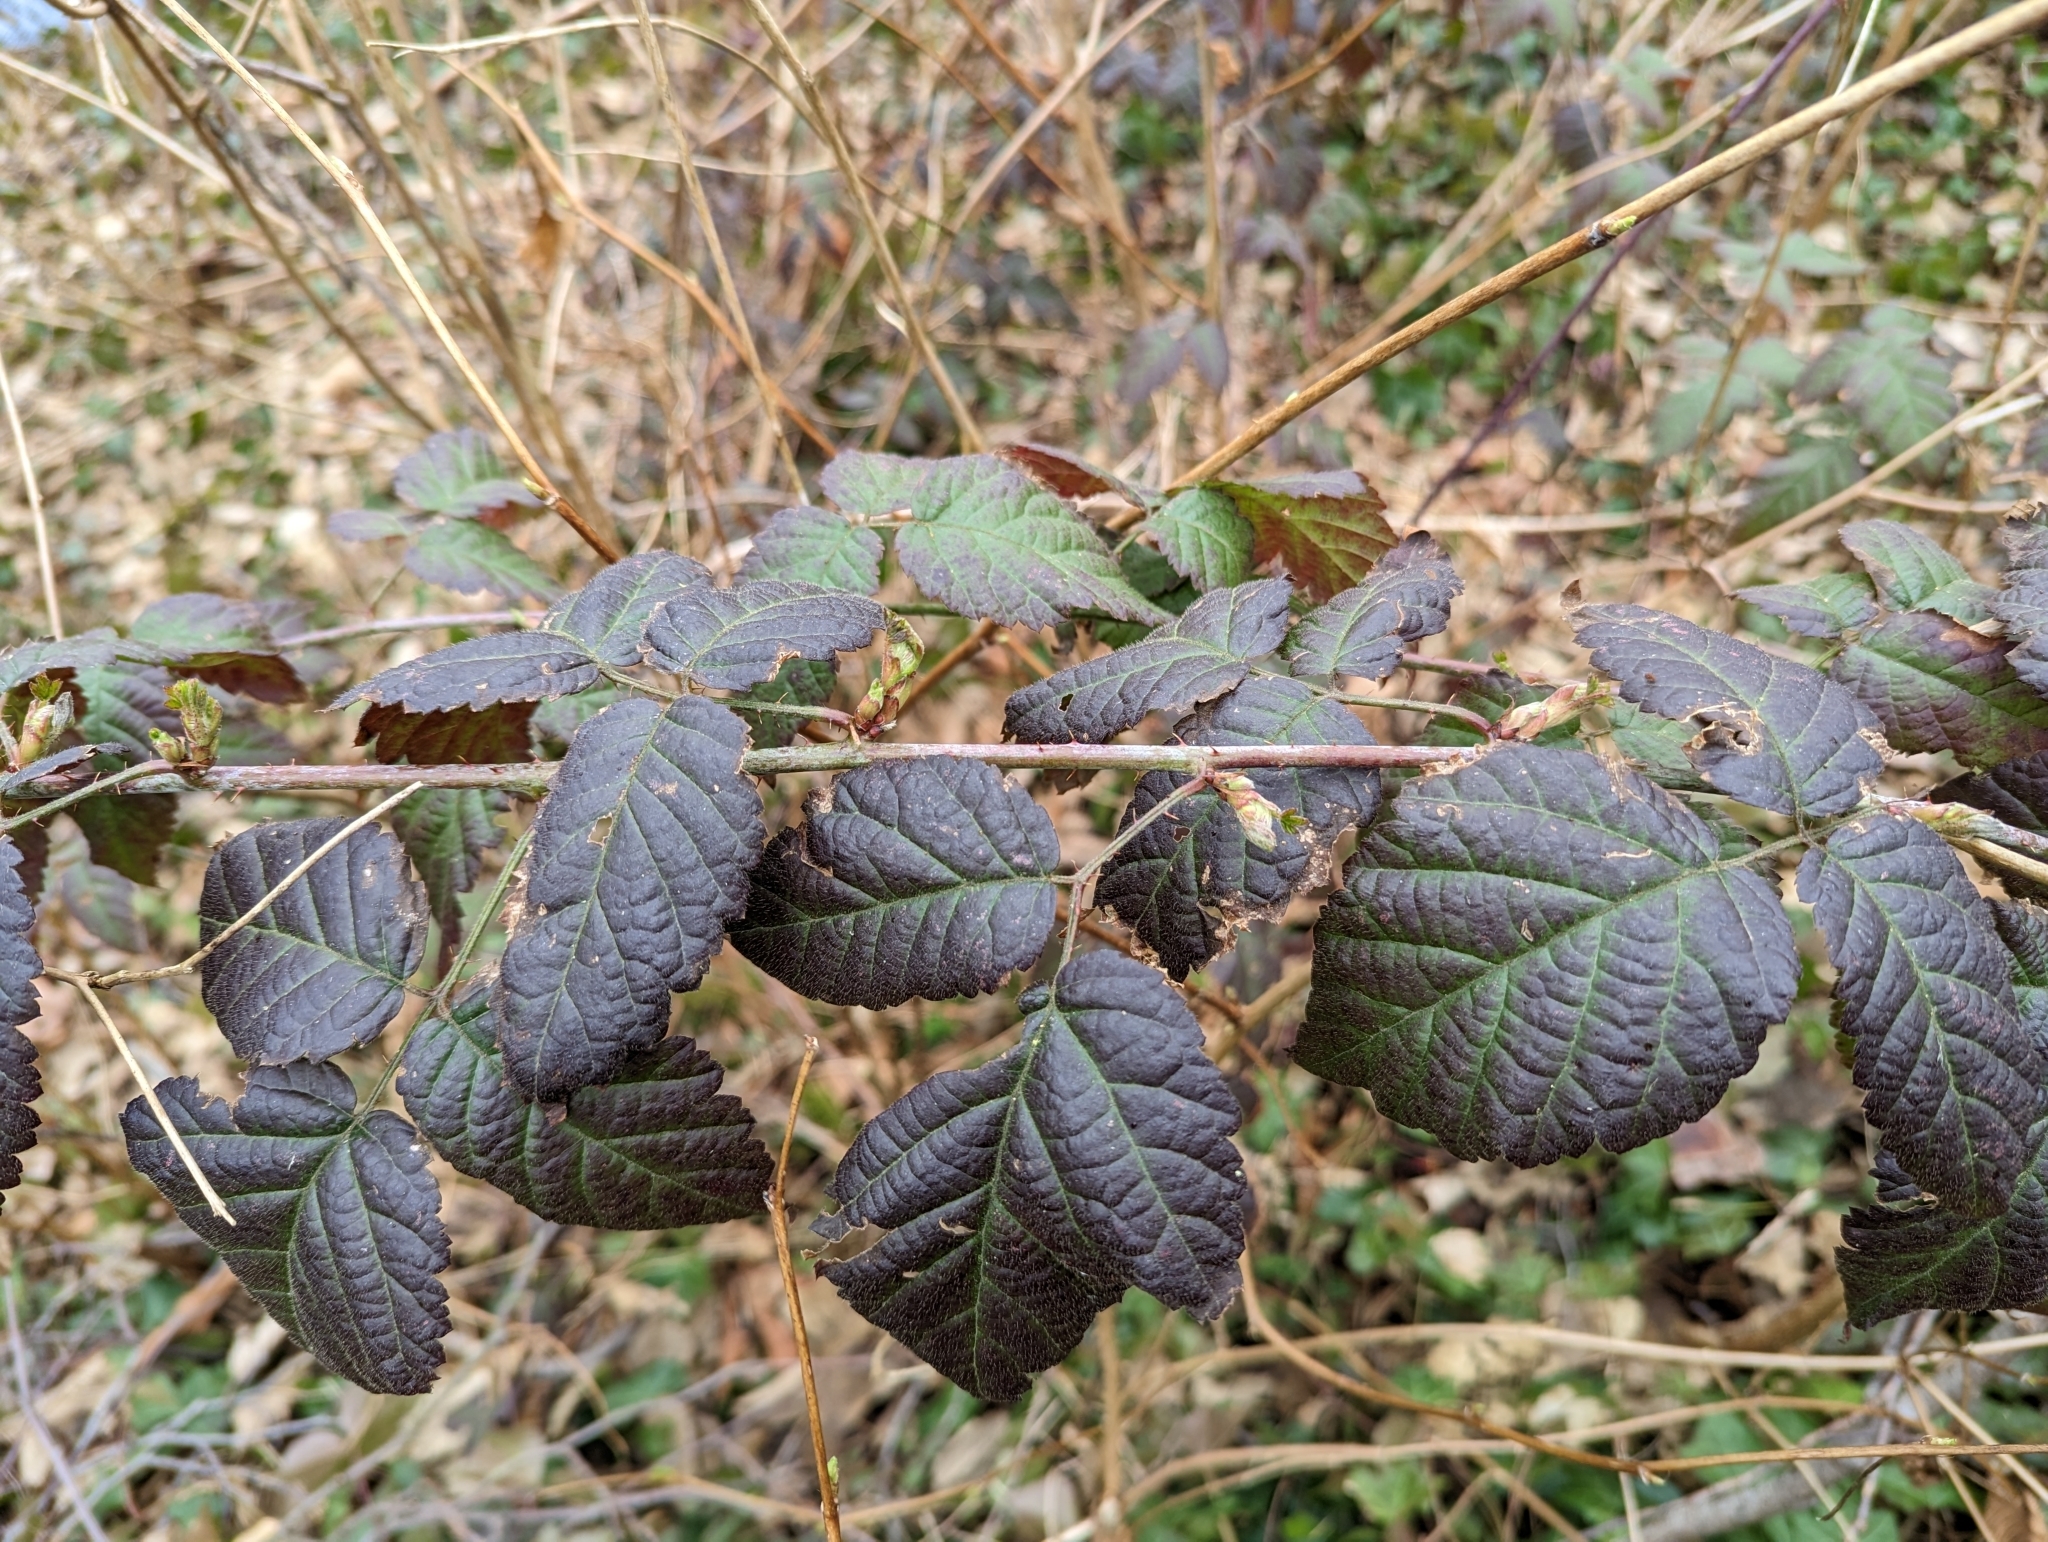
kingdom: Plantae
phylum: Tracheophyta
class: Magnoliopsida
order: Rosales
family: Rosaceae
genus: Rubus
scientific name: Rubus ursinus
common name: Pacific blackberry
